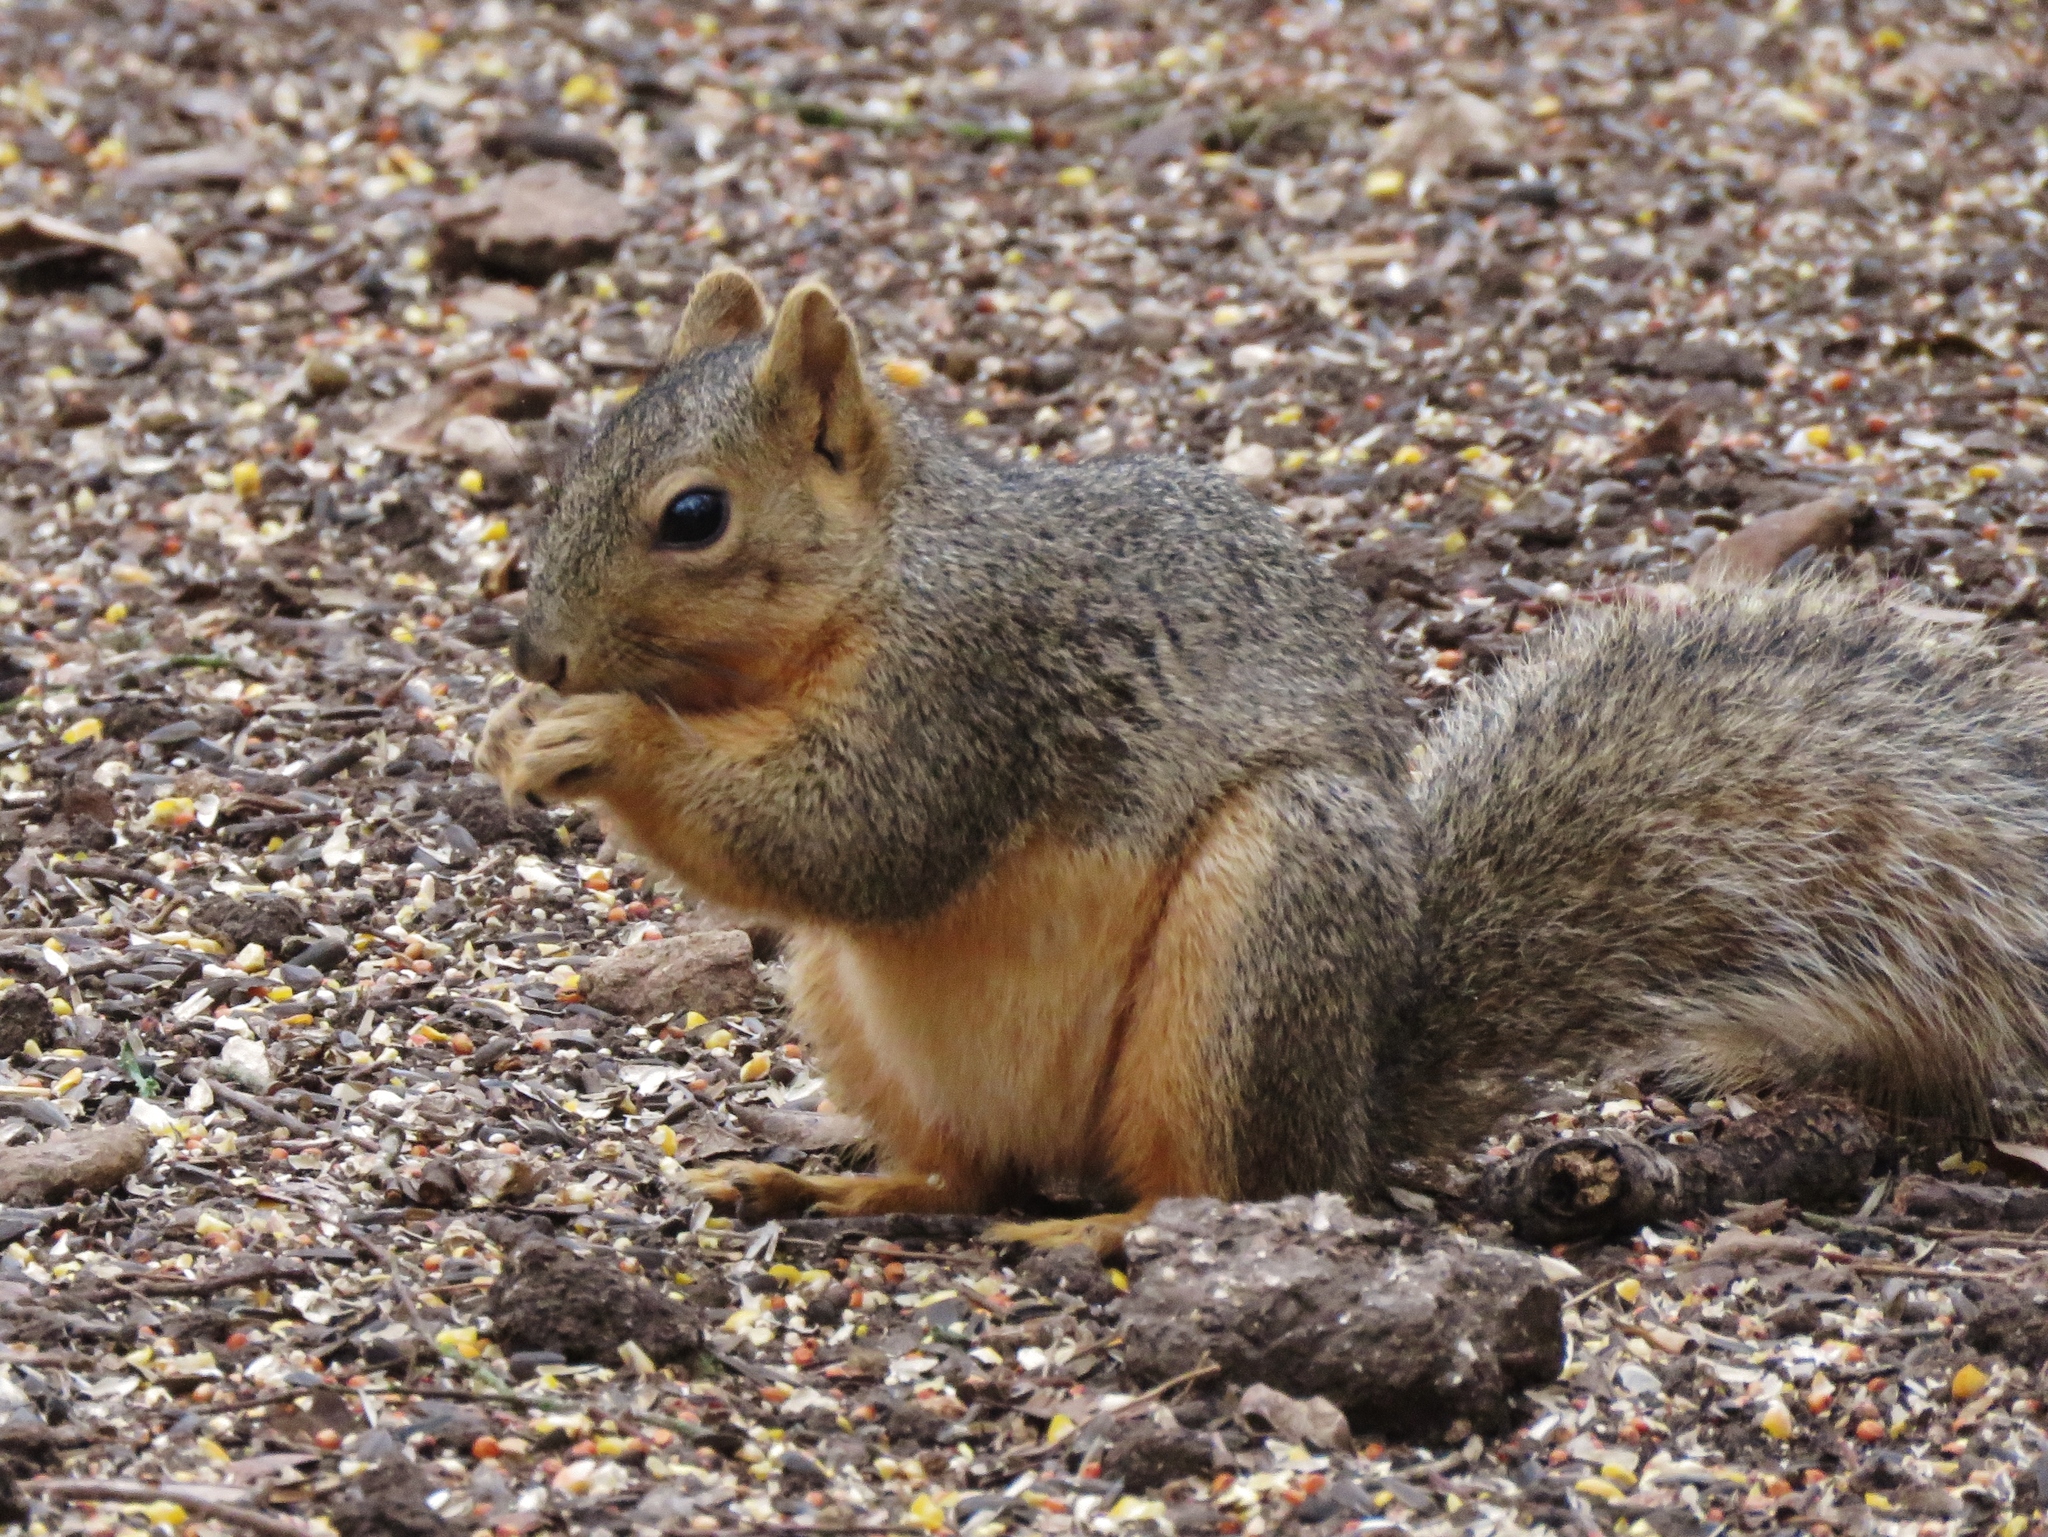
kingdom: Animalia
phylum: Chordata
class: Mammalia
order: Rodentia
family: Sciuridae
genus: Sciurus
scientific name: Sciurus niger
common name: Fox squirrel
